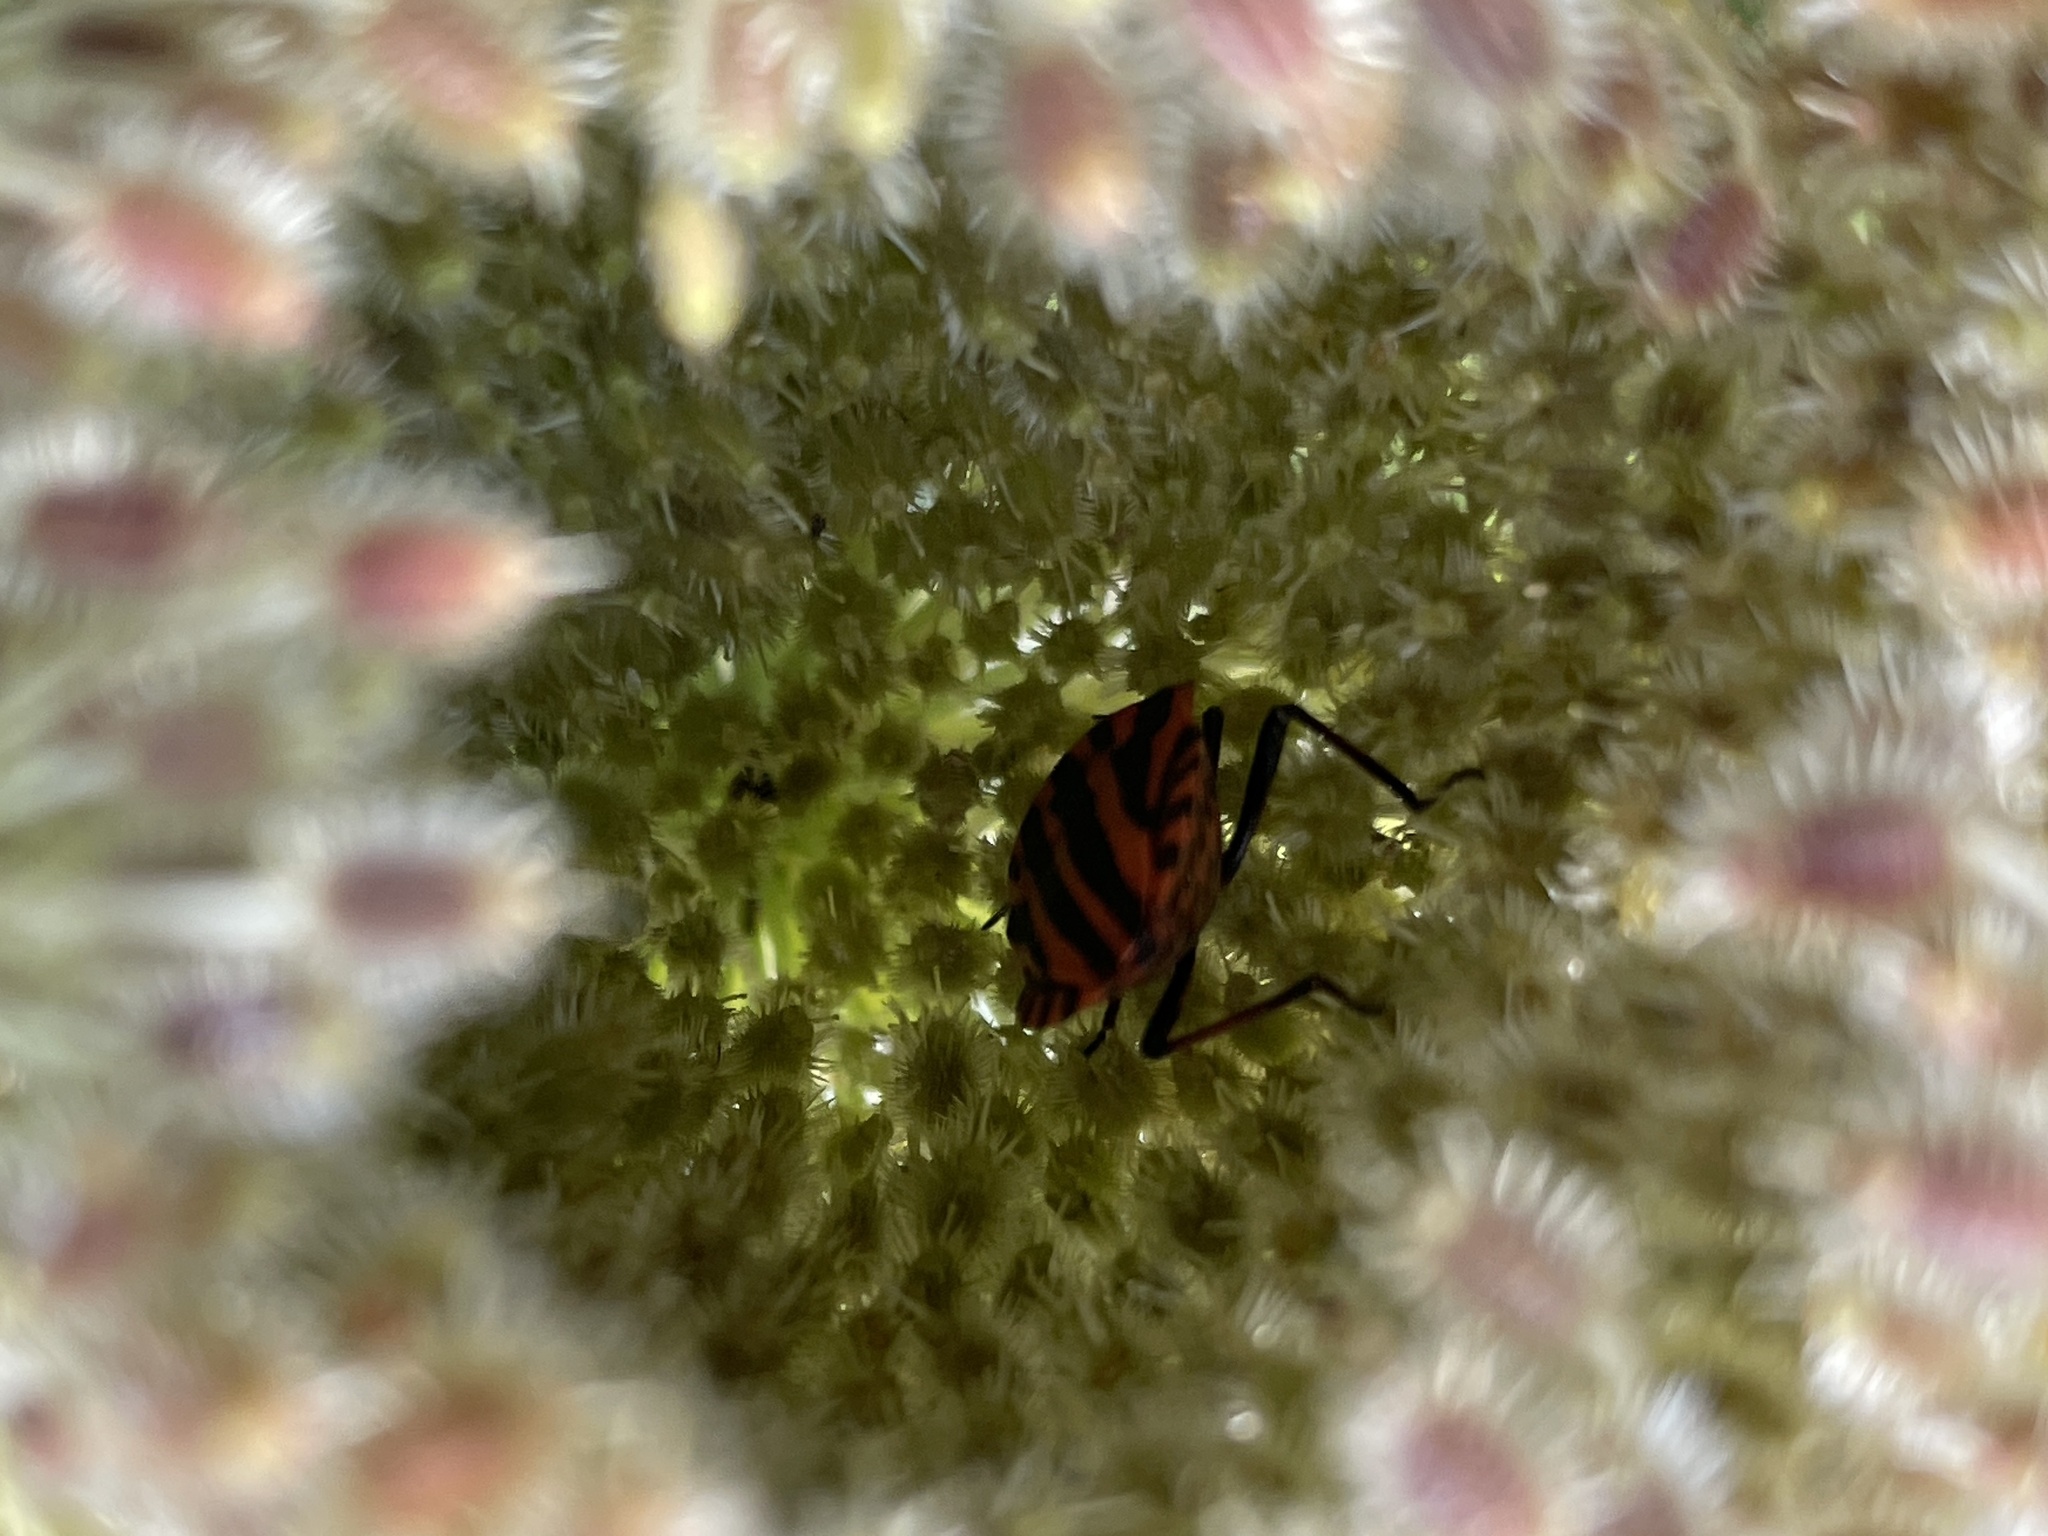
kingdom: Animalia
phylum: Arthropoda
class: Insecta
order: Hemiptera
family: Pentatomidae
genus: Graphosoma
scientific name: Graphosoma italicum
